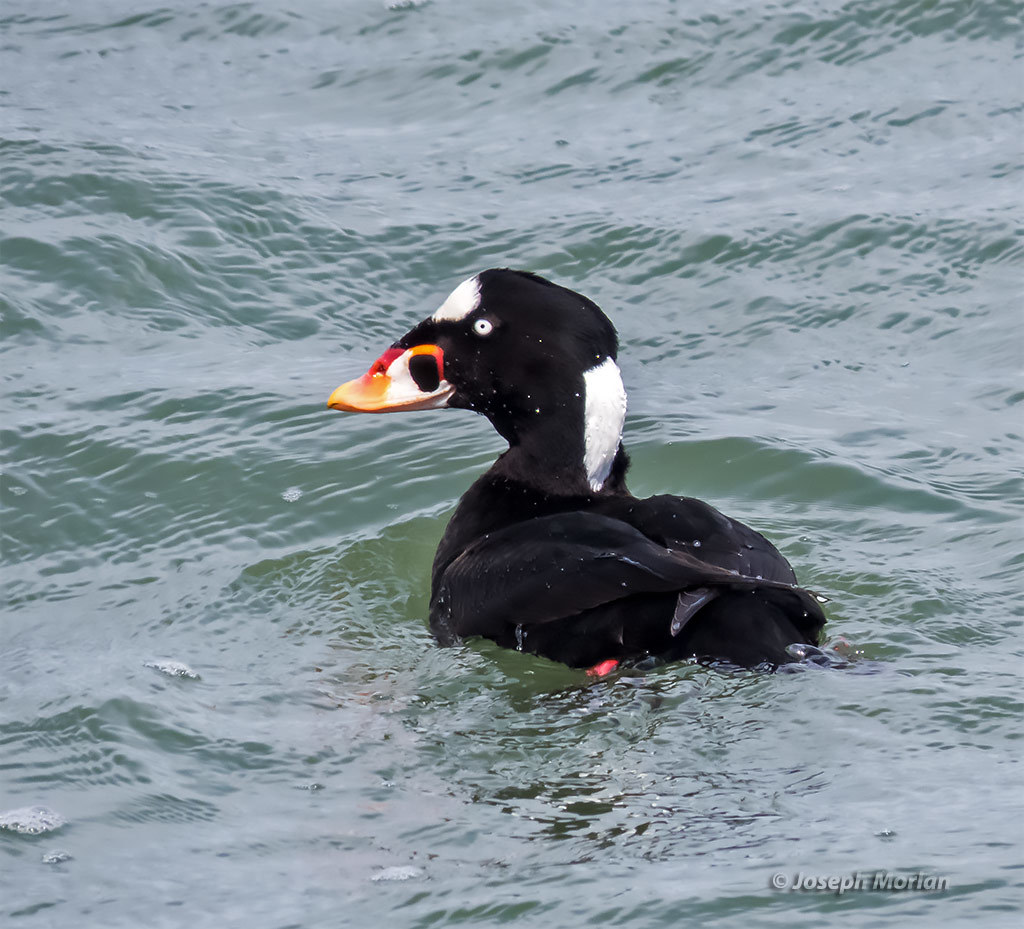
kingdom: Animalia
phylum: Chordata
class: Aves
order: Anseriformes
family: Anatidae
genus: Melanitta
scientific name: Melanitta perspicillata
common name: Surf scoter
